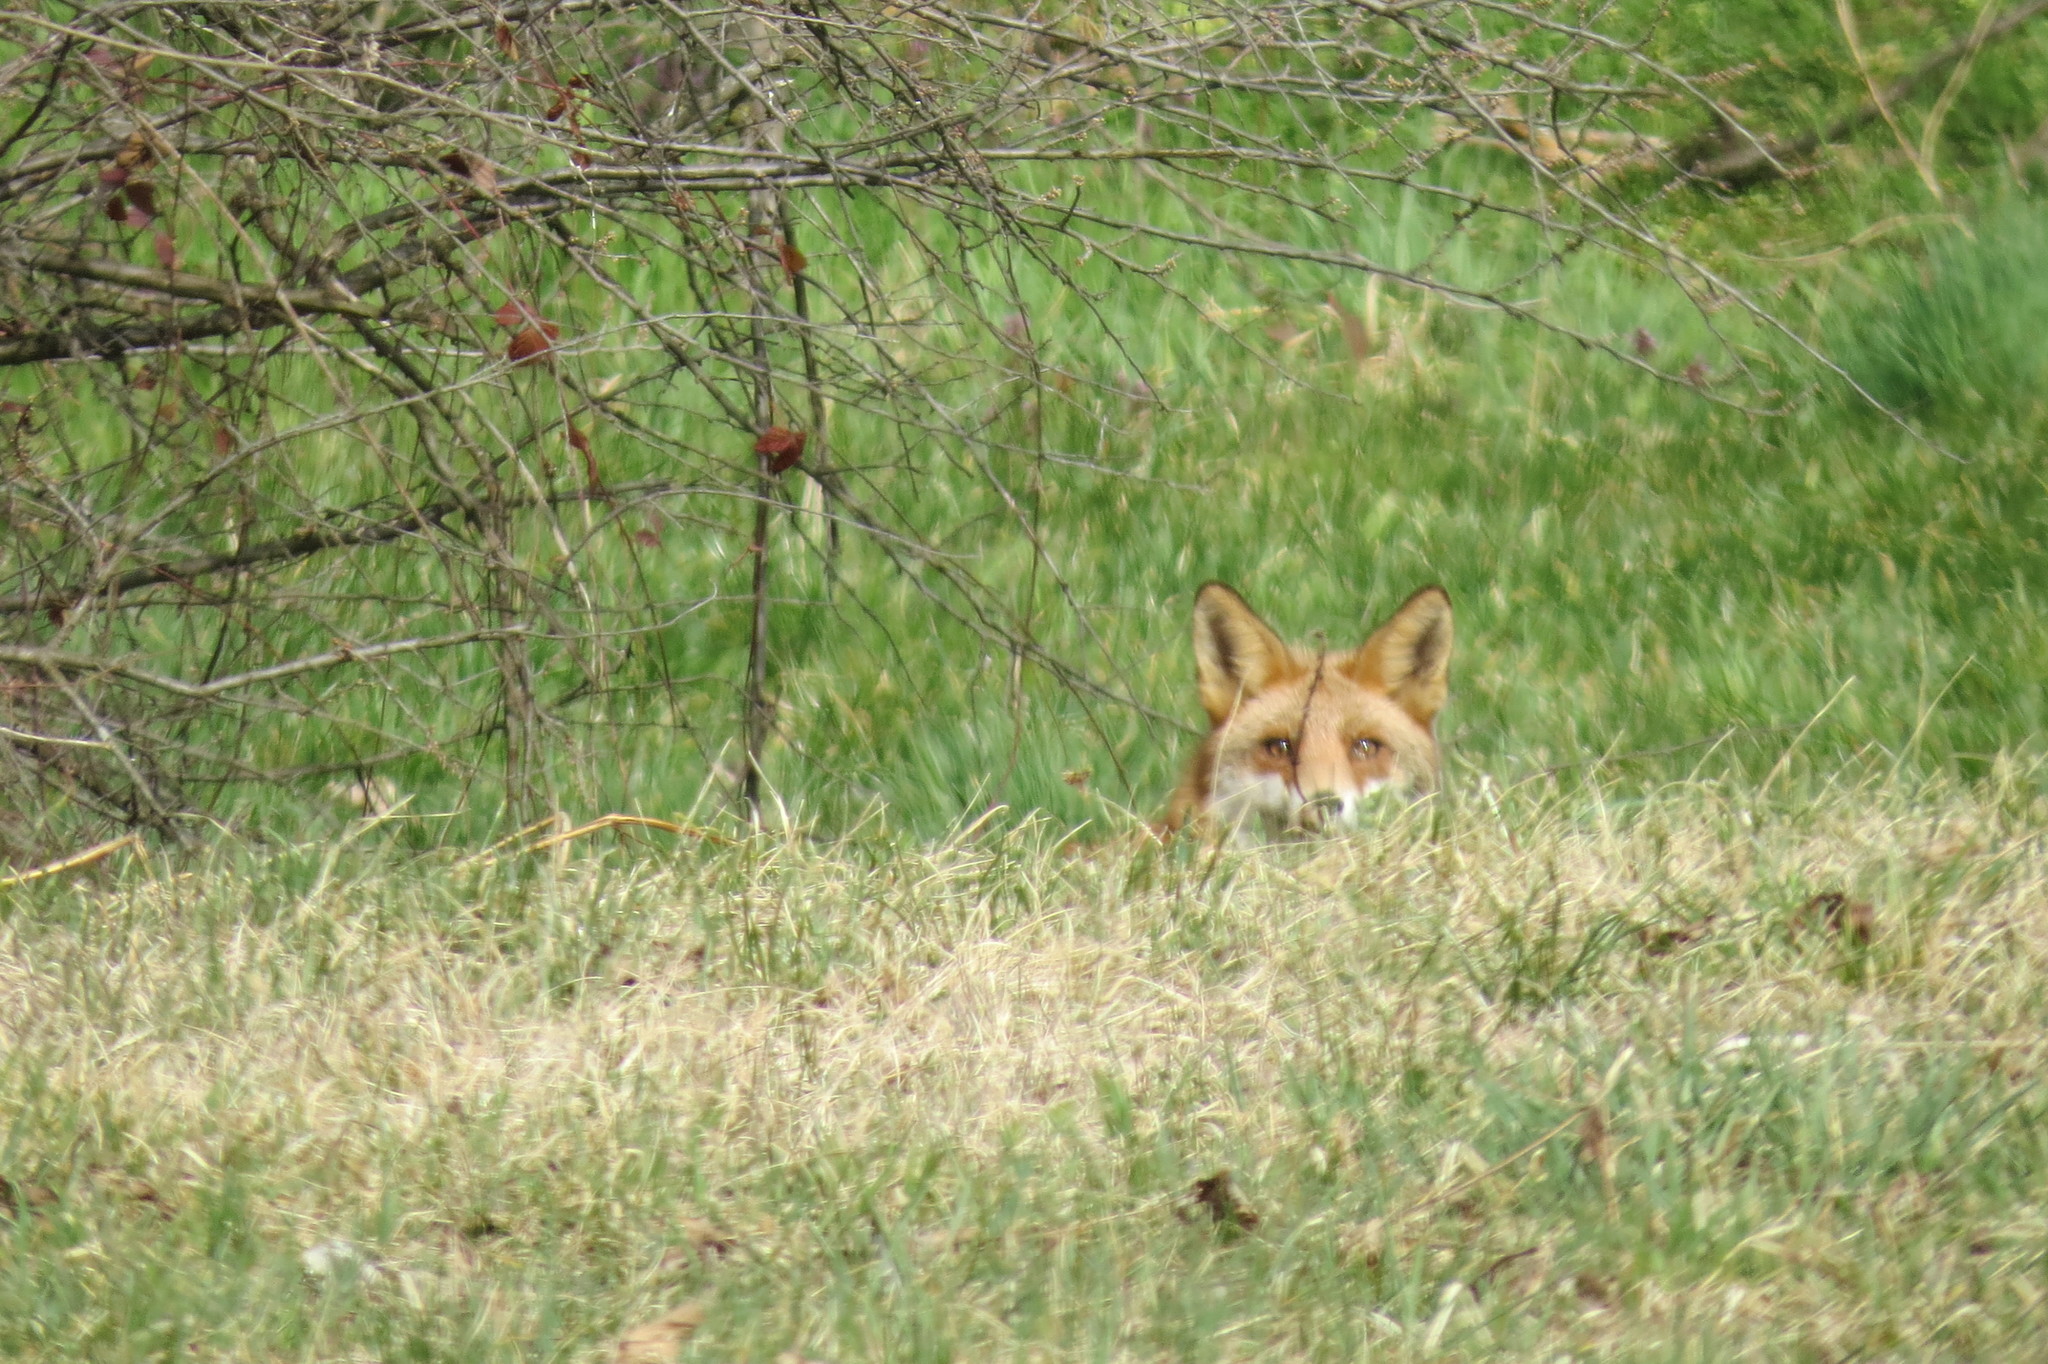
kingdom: Animalia
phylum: Chordata
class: Mammalia
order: Carnivora
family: Canidae
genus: Vulpes
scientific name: Vulpes vulpes
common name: Red fox
